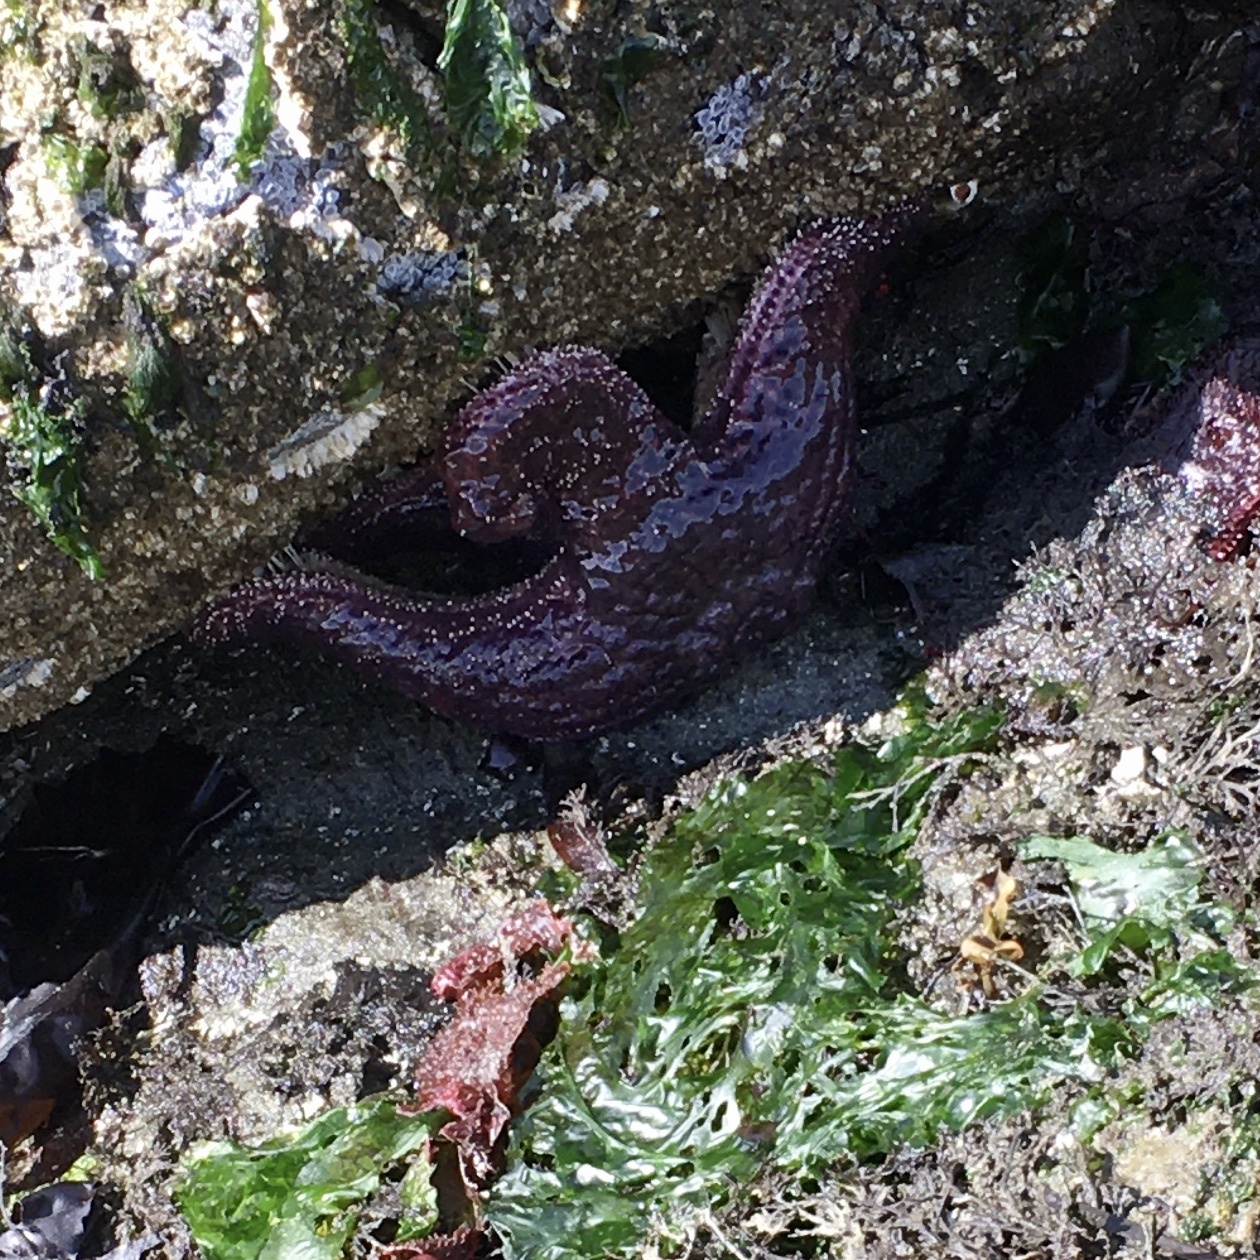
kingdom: Animalia
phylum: Echinodermata
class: Asteroidea
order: Forcipulatida
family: Asteriidae
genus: Pisaster
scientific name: Pisaster ochraceus
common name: Ochre stars
